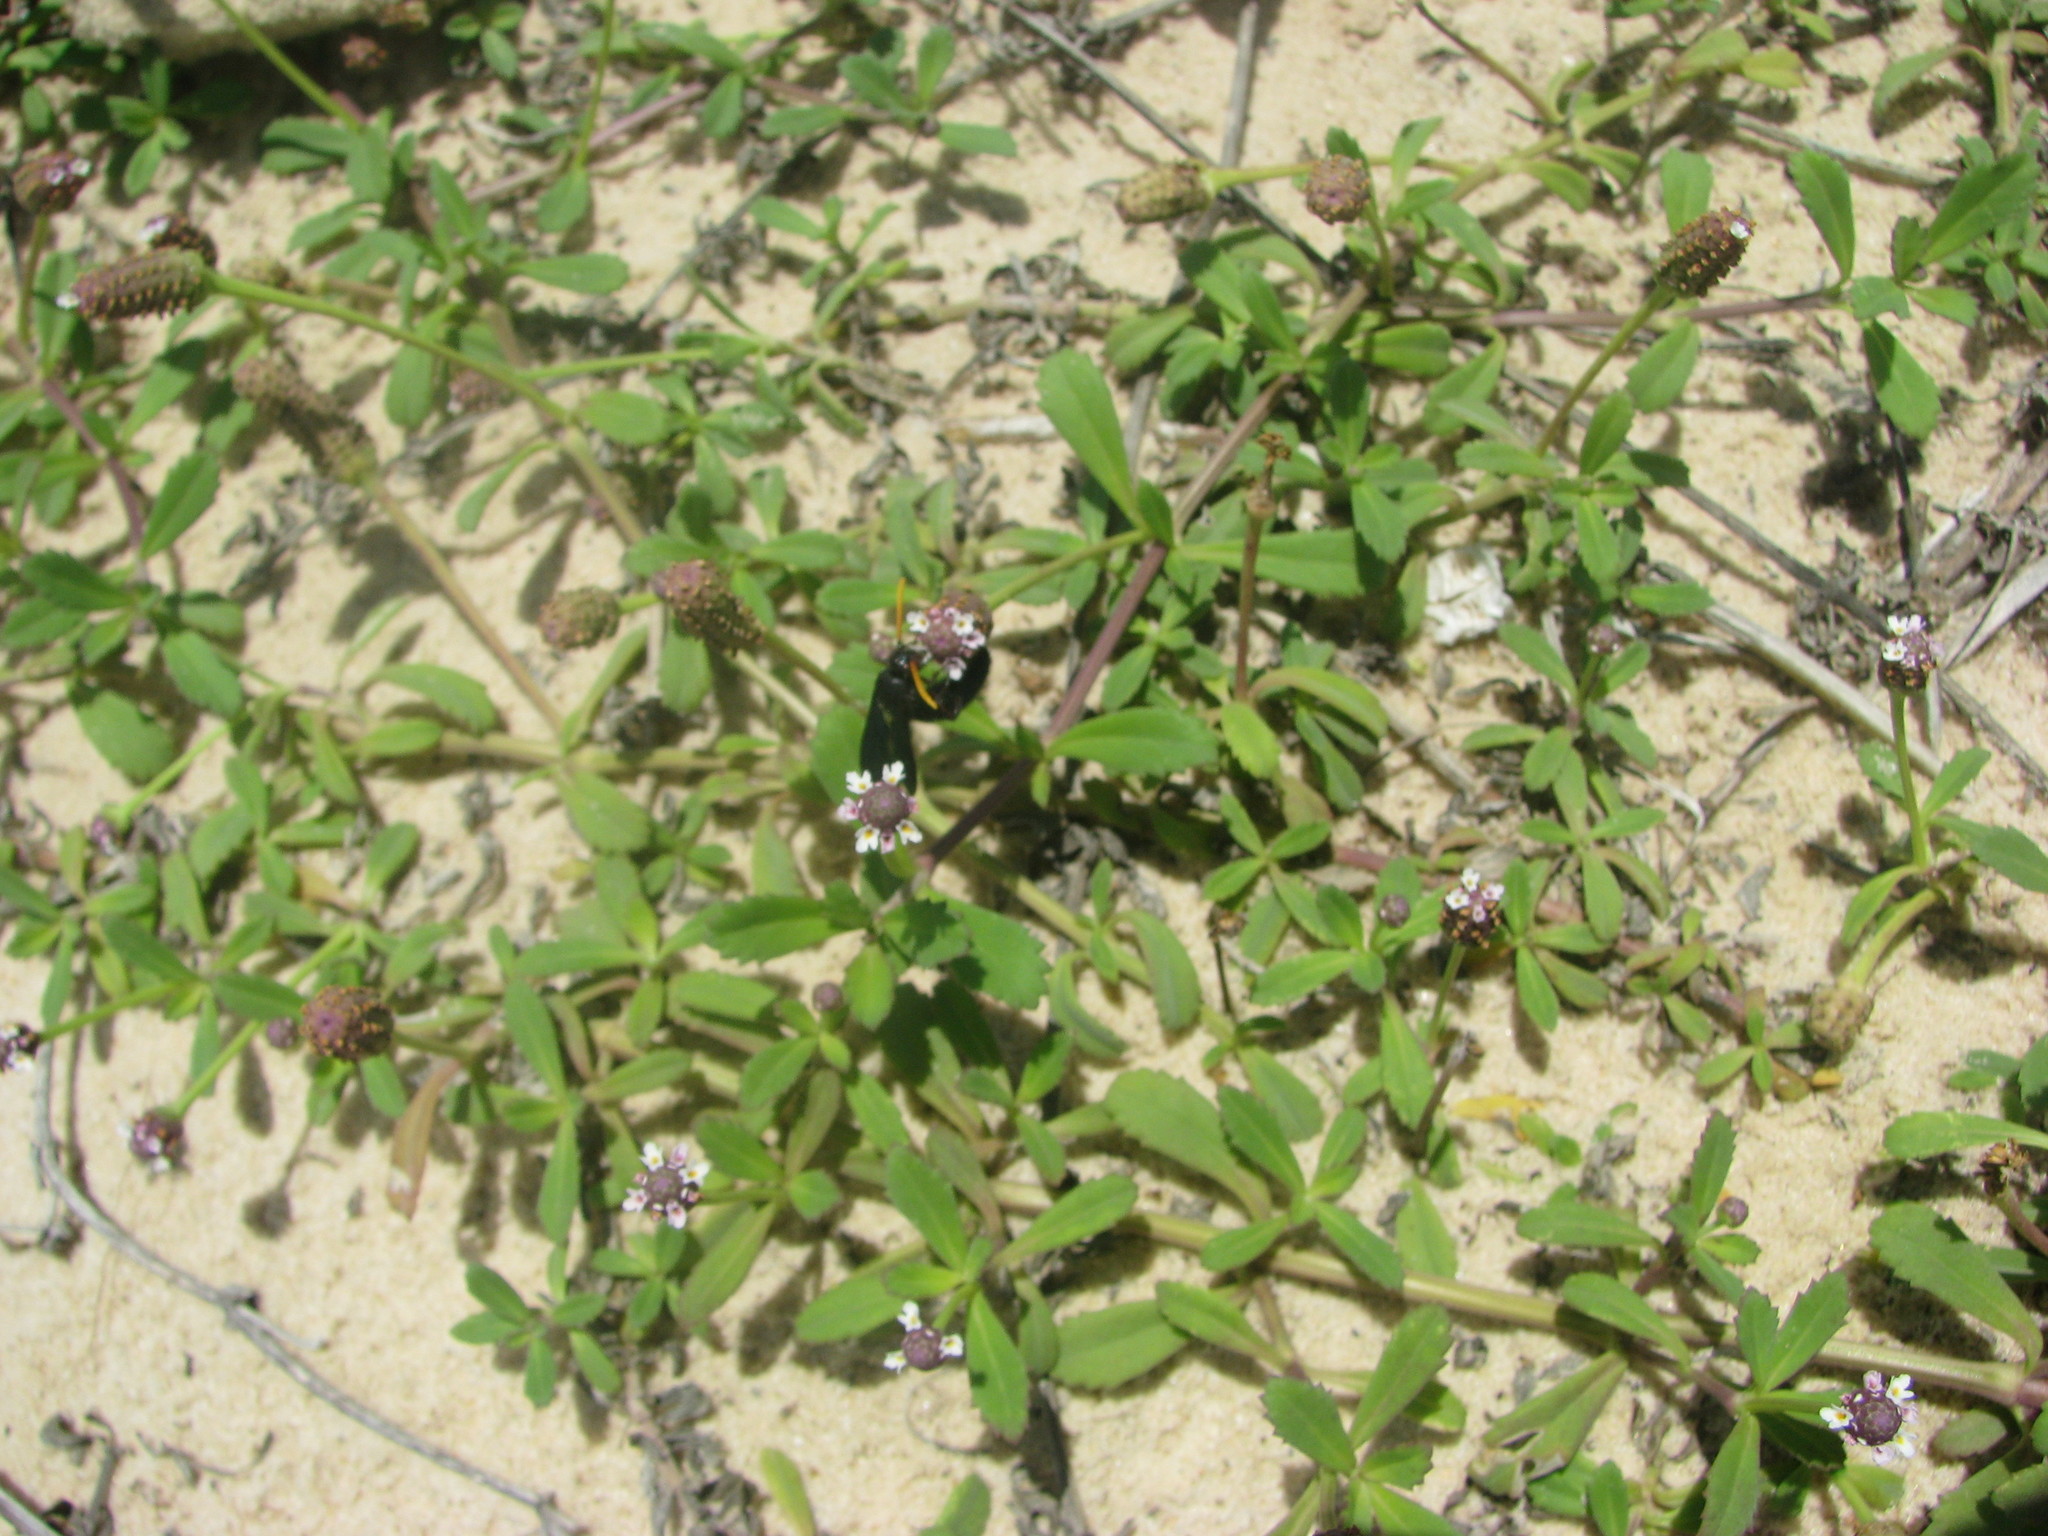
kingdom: Plantae
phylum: Tracheophyta
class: Magnoliopsida
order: Lamiales
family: Verbenaceae
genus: Phyla
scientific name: Phyla nodiflora
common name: Frogfruit
